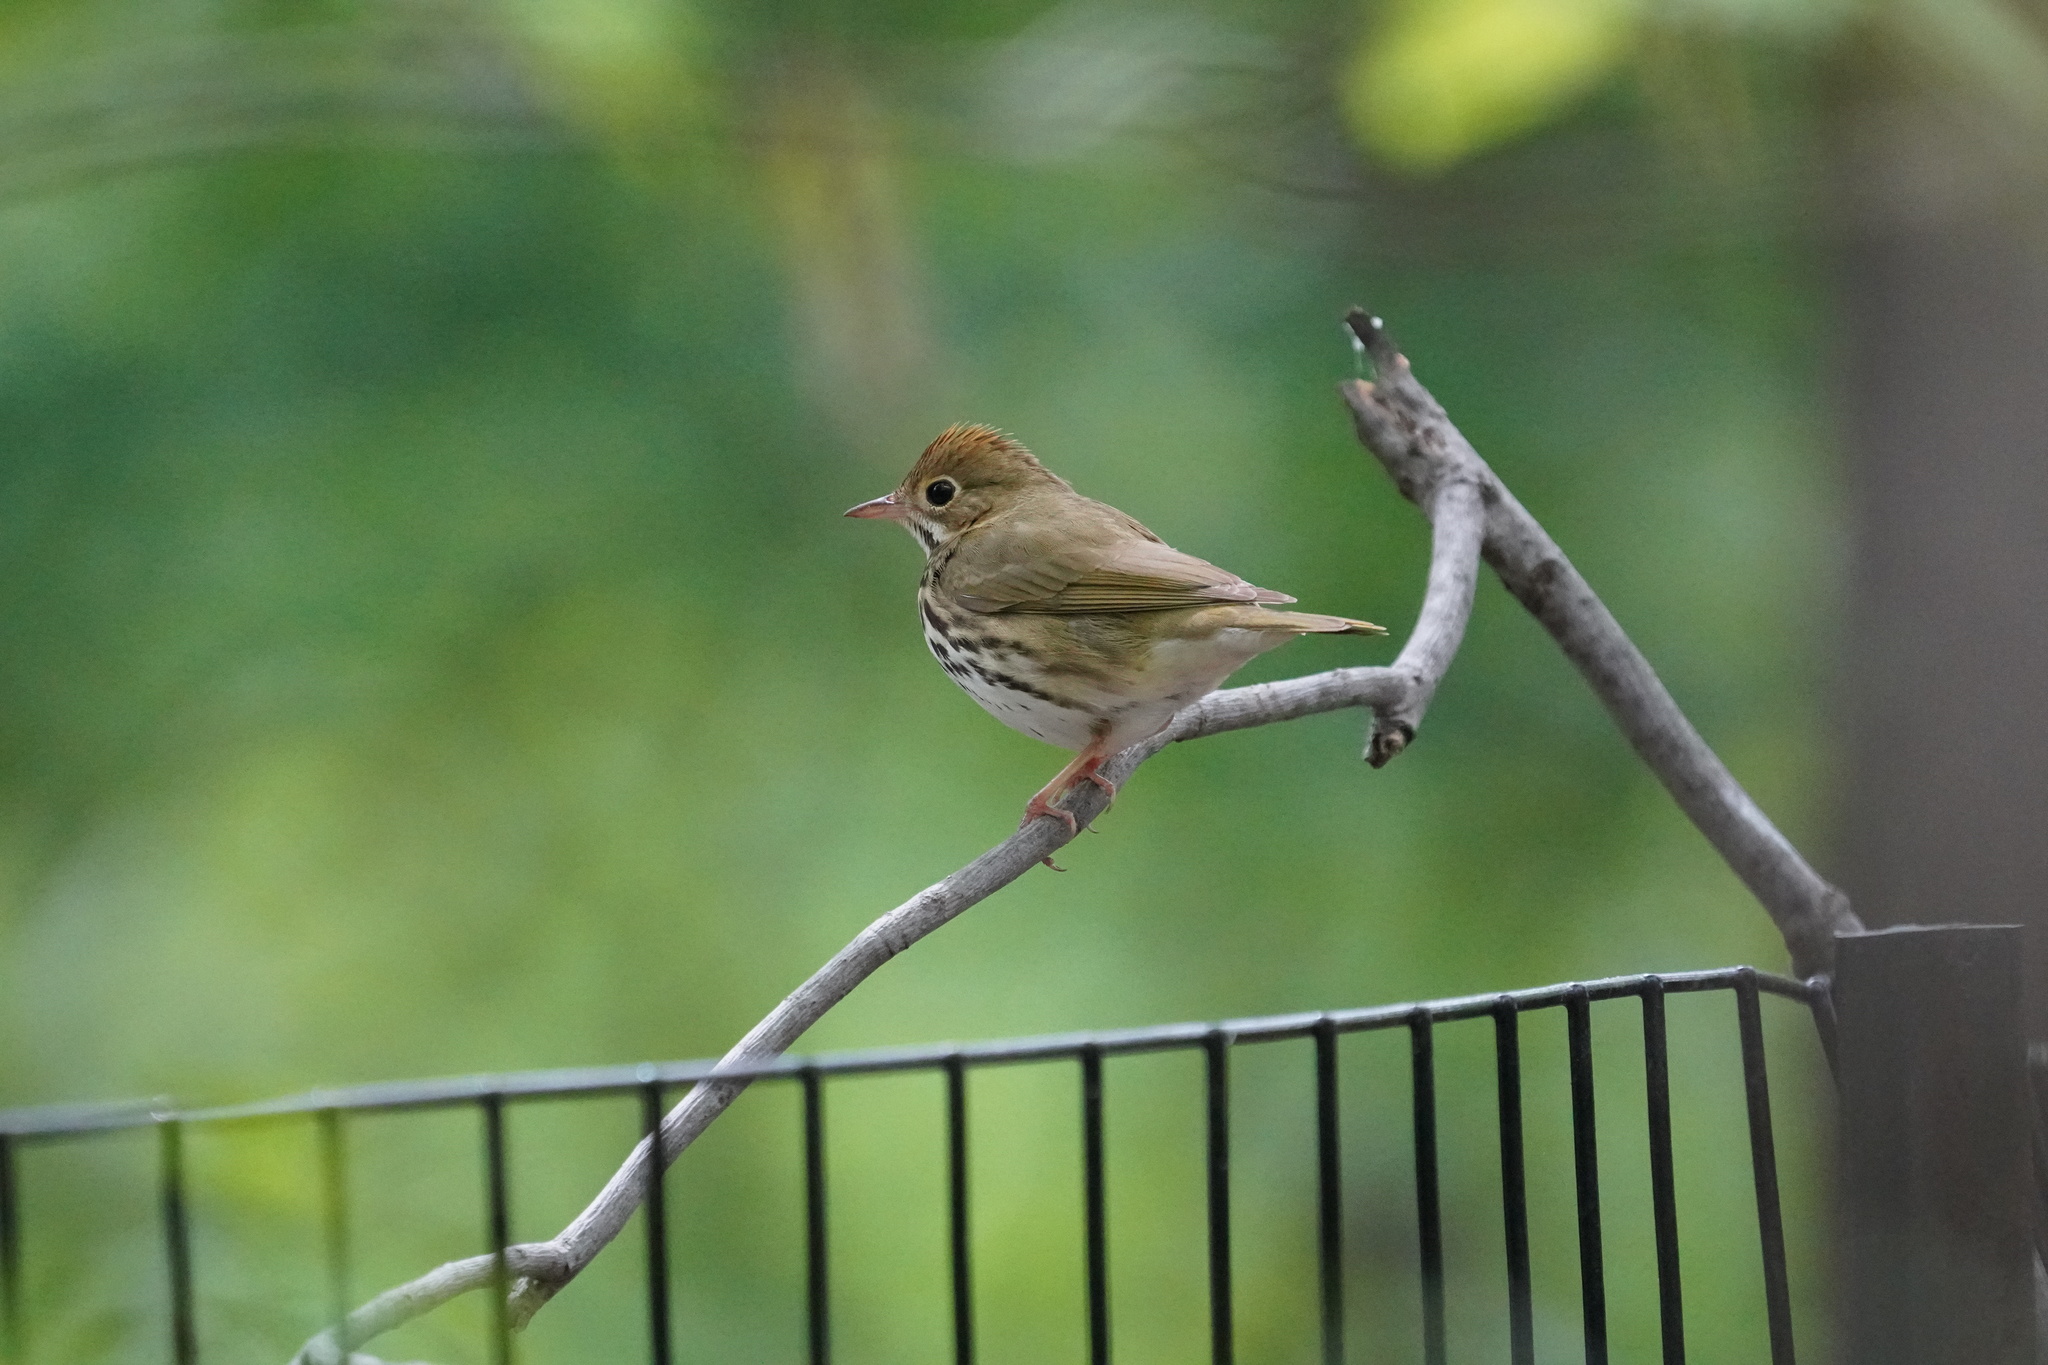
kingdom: Animalia
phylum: Chordata
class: Aves
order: Passeriformes
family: Parulidae
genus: Seiurus
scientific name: Seiurus aurocapilla
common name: Ovenbird
